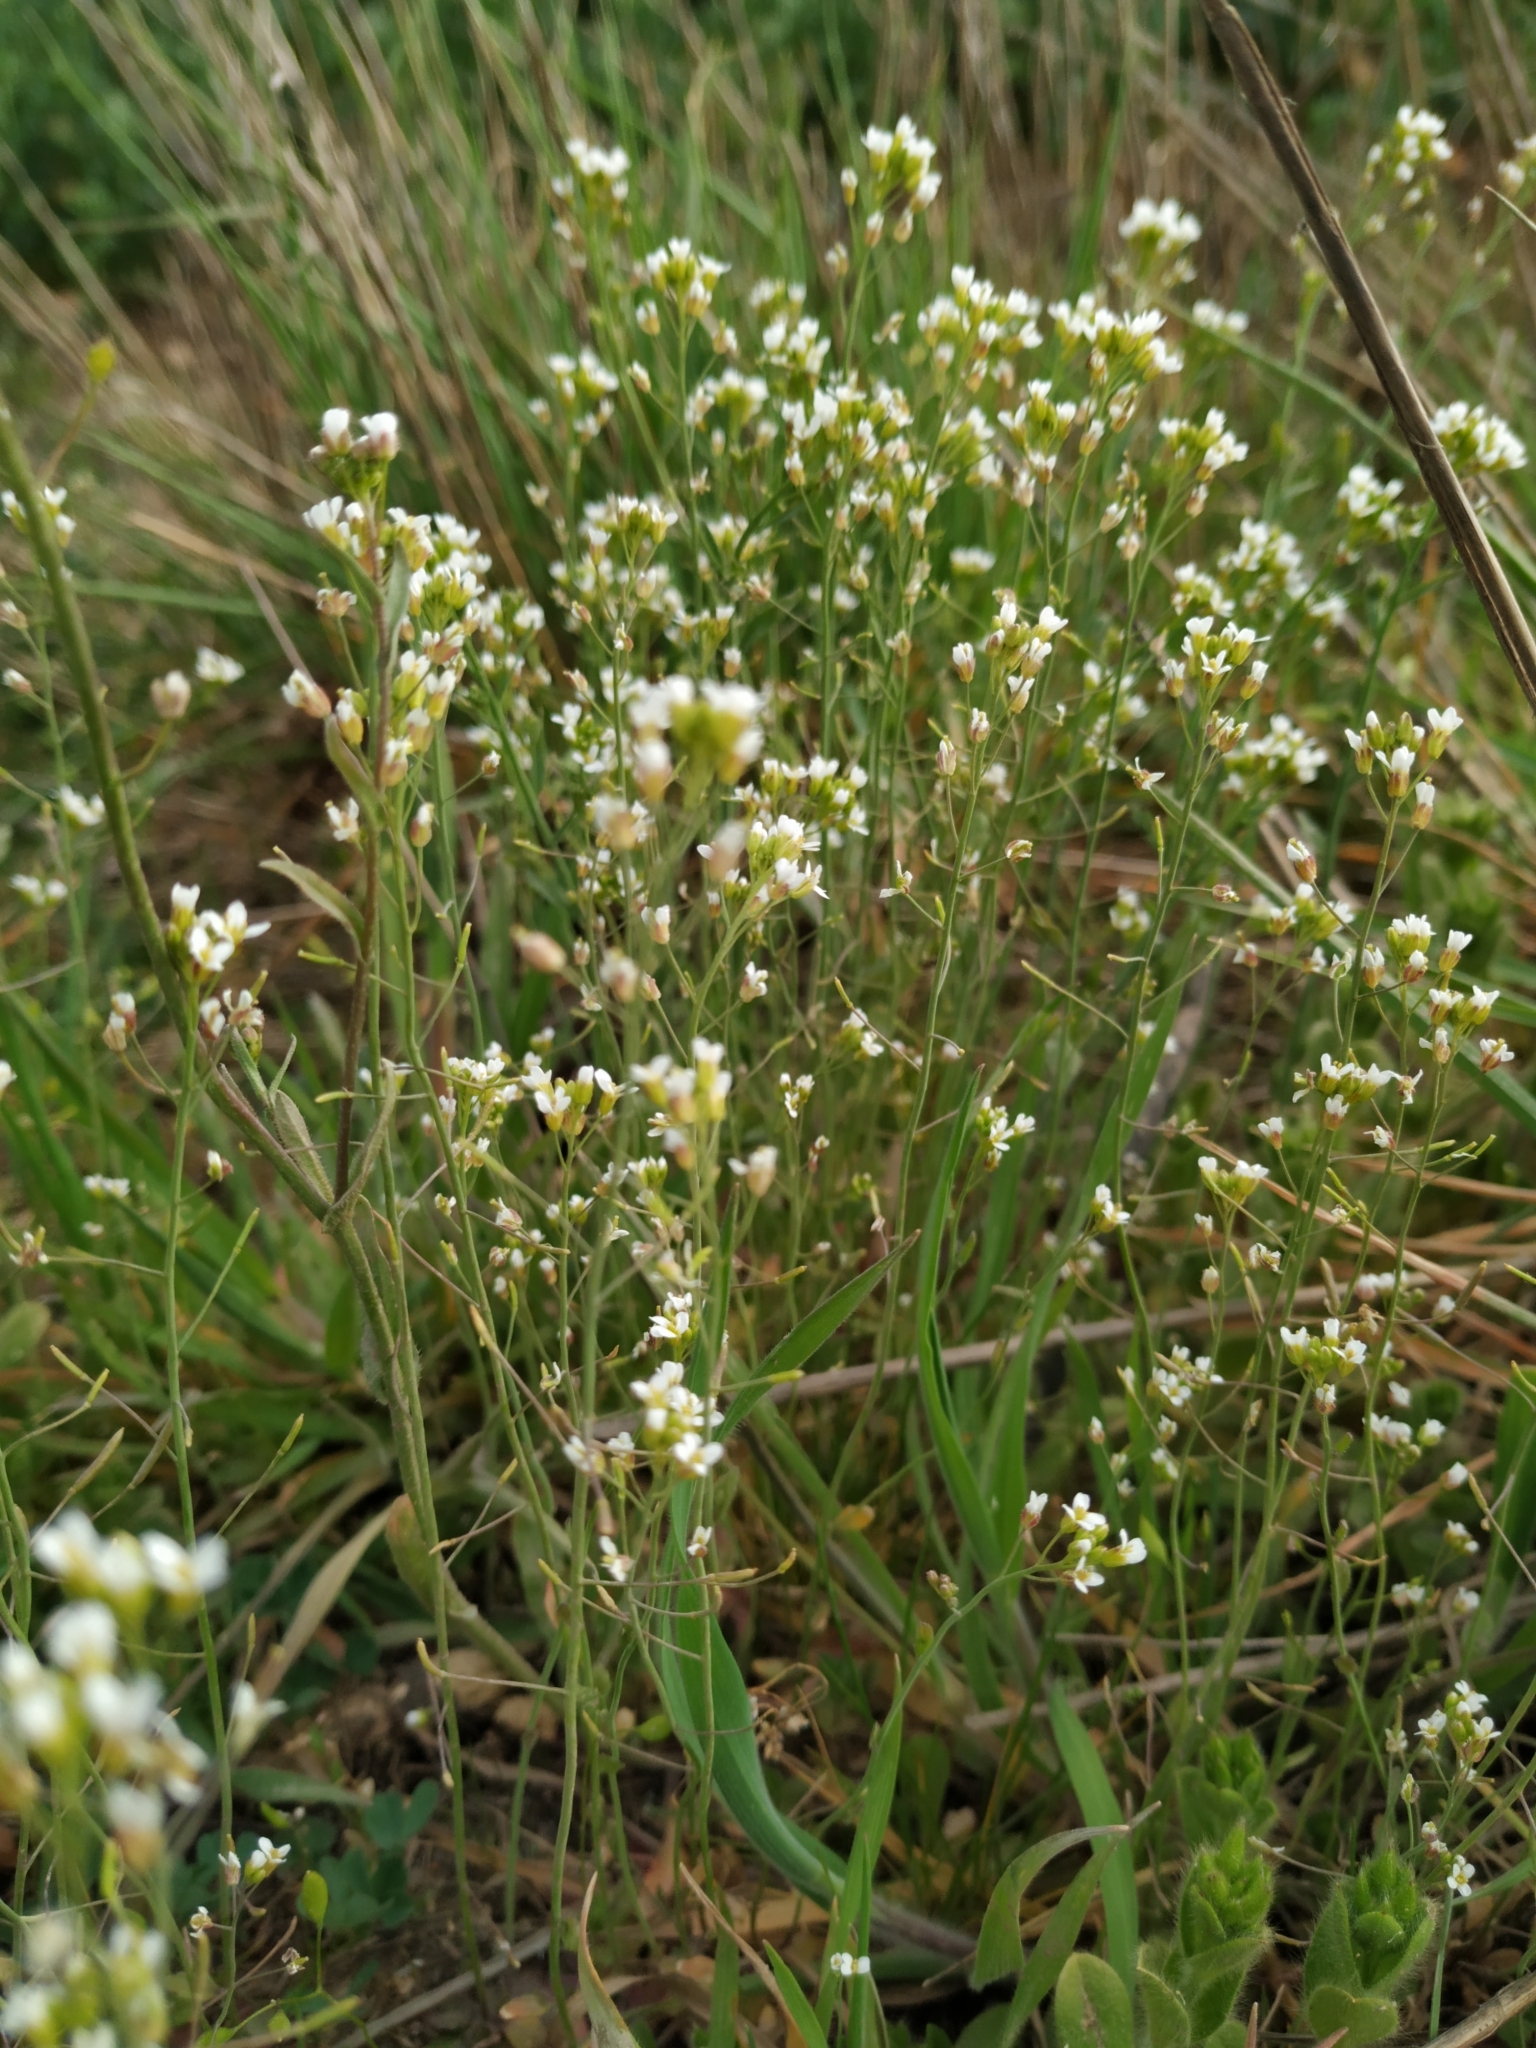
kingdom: Plantae
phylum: Tracheophyta
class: Magnoliopsida
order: Brassicales
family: Brassicaceae
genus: Arabidopsis
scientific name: Arabidopsis thaliana
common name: Thale cress
